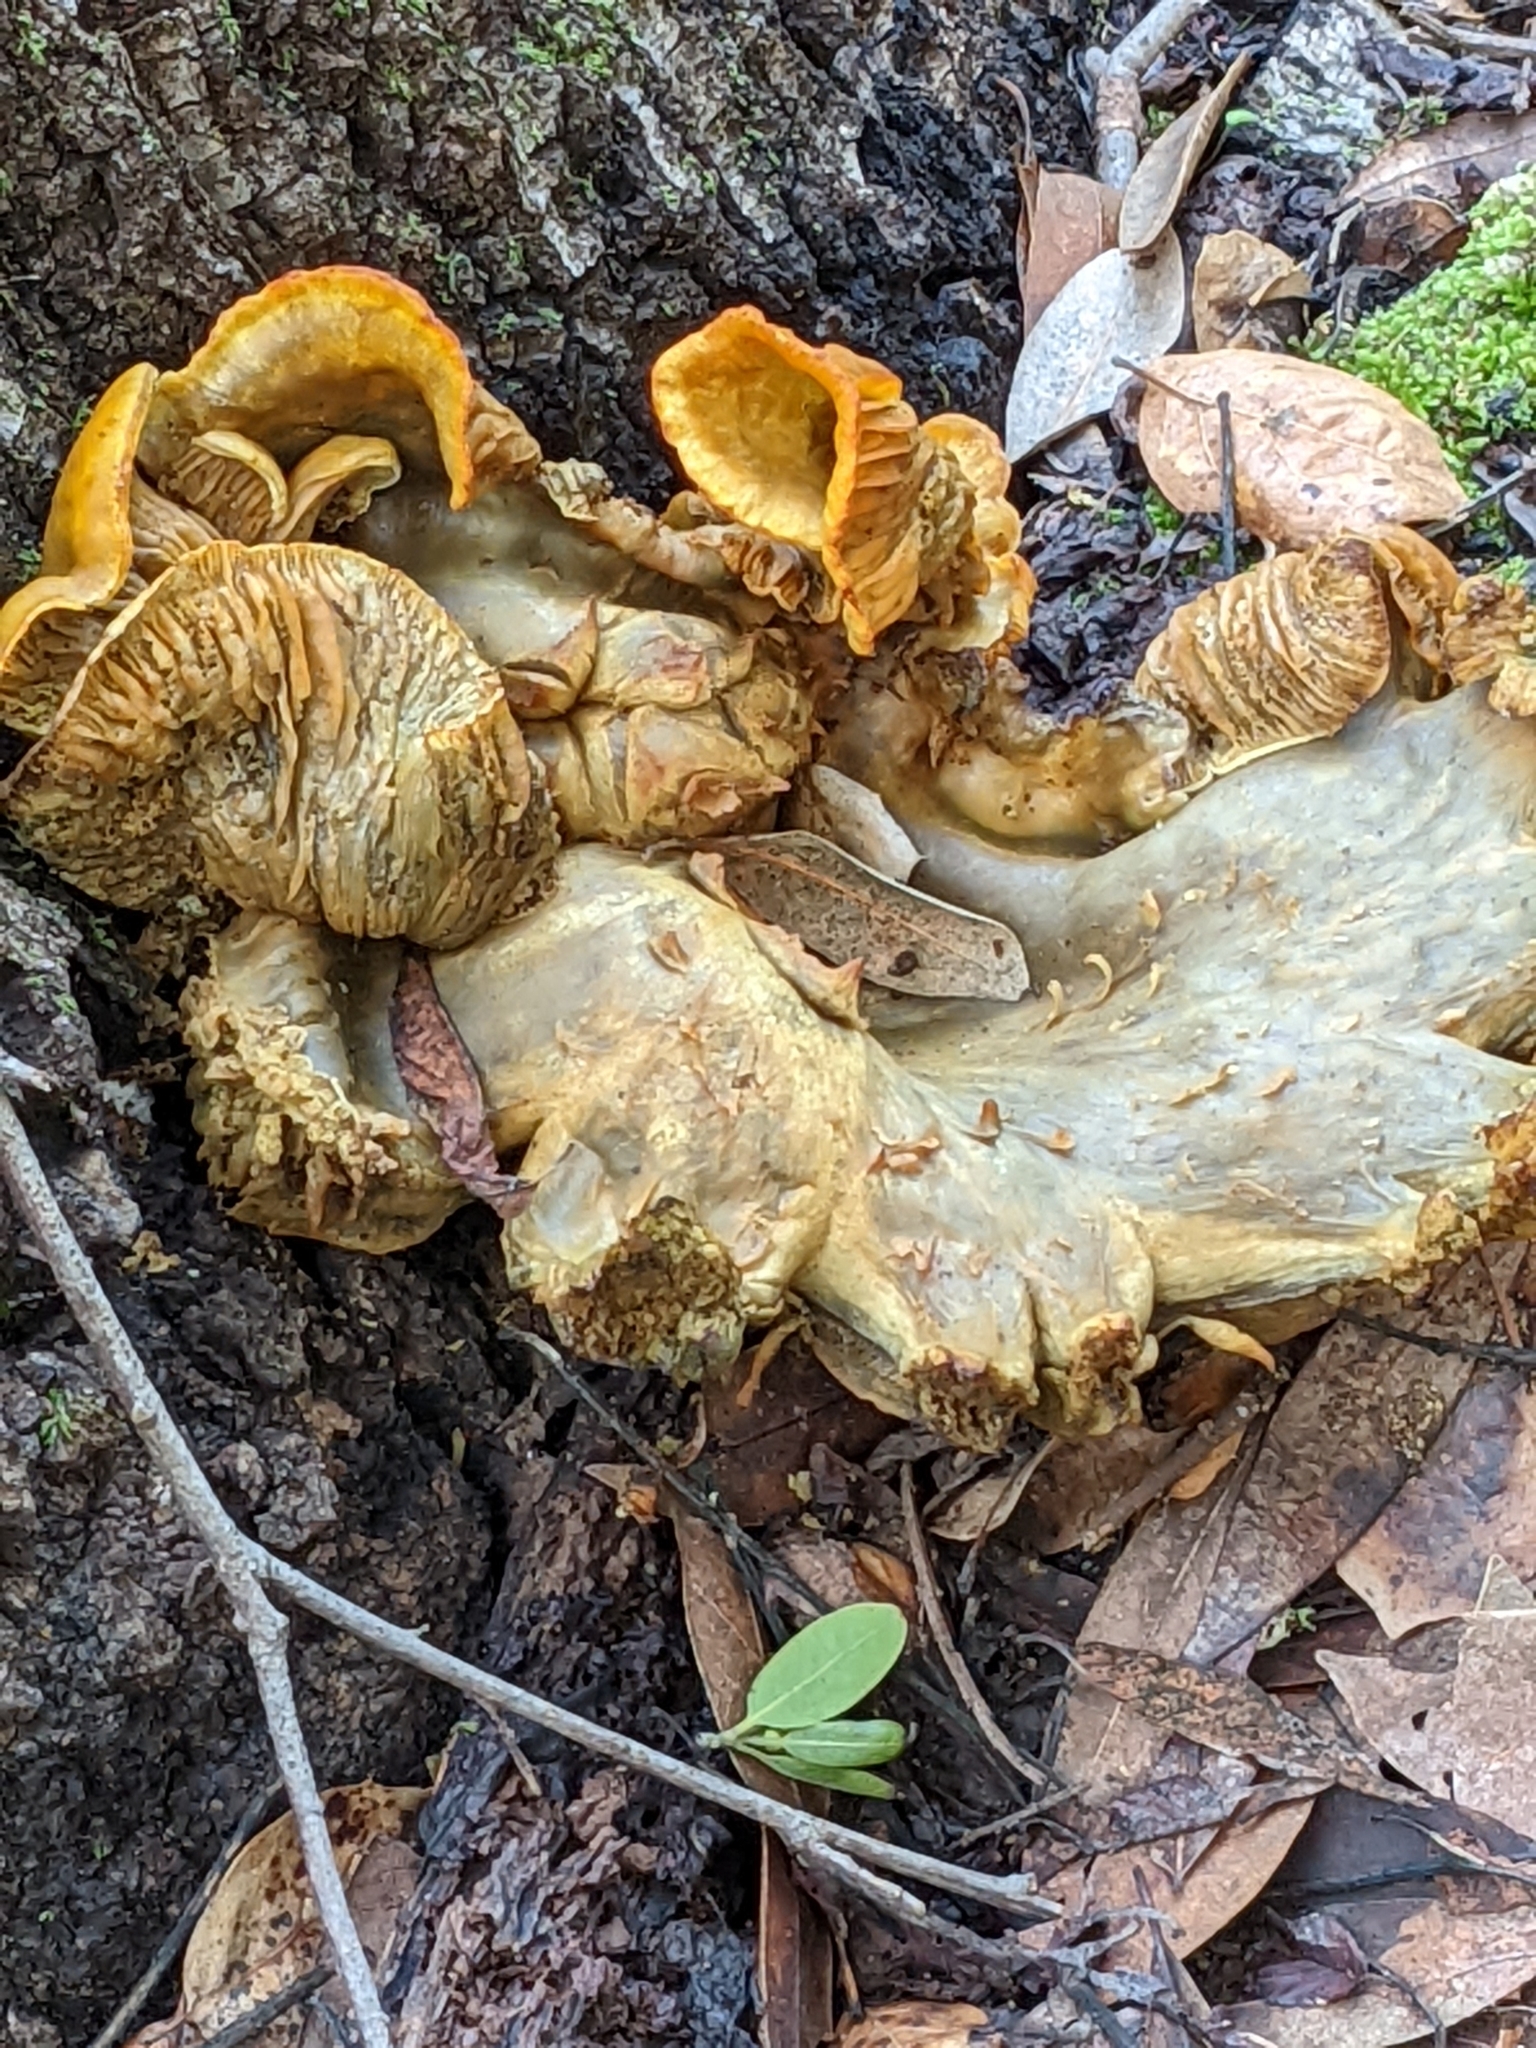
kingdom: Fungi
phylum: Basidiomycota
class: Agaricomycetes
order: Agaricales
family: Omphalotaceae
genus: Omphalotus
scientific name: Omphalotus olivascens
